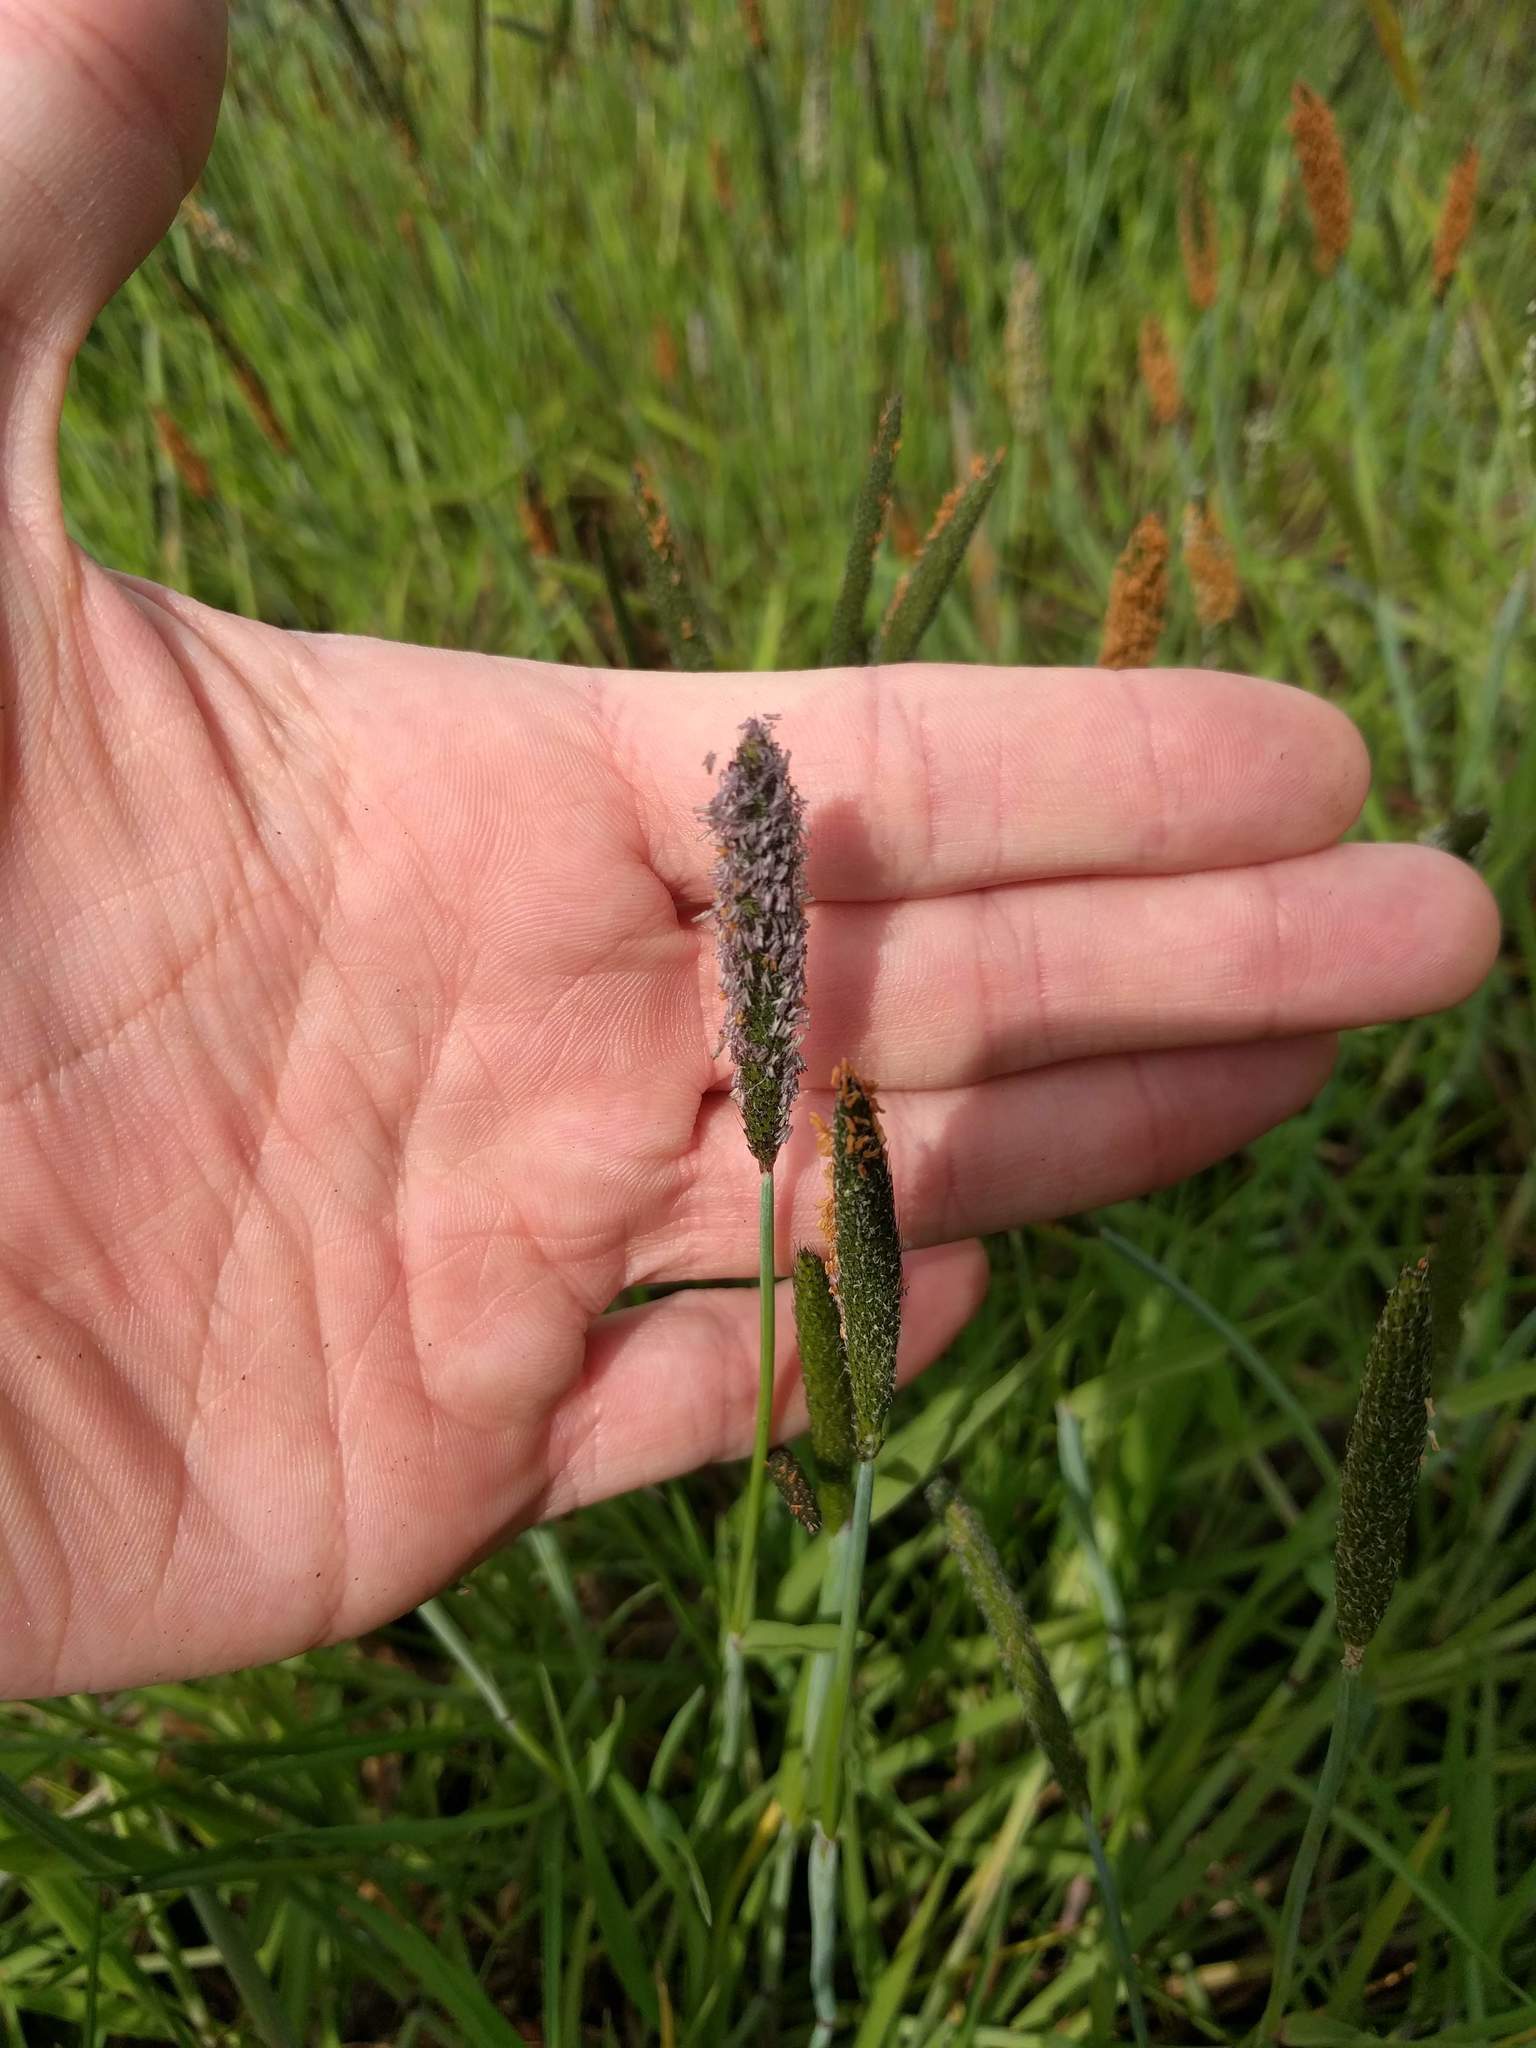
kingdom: Plantae
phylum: Tracheophyta
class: Liliopsida
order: Poales
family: Poaceae
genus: Alopecurus
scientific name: Alopecurus carolinianus
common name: Tufted foxtail
